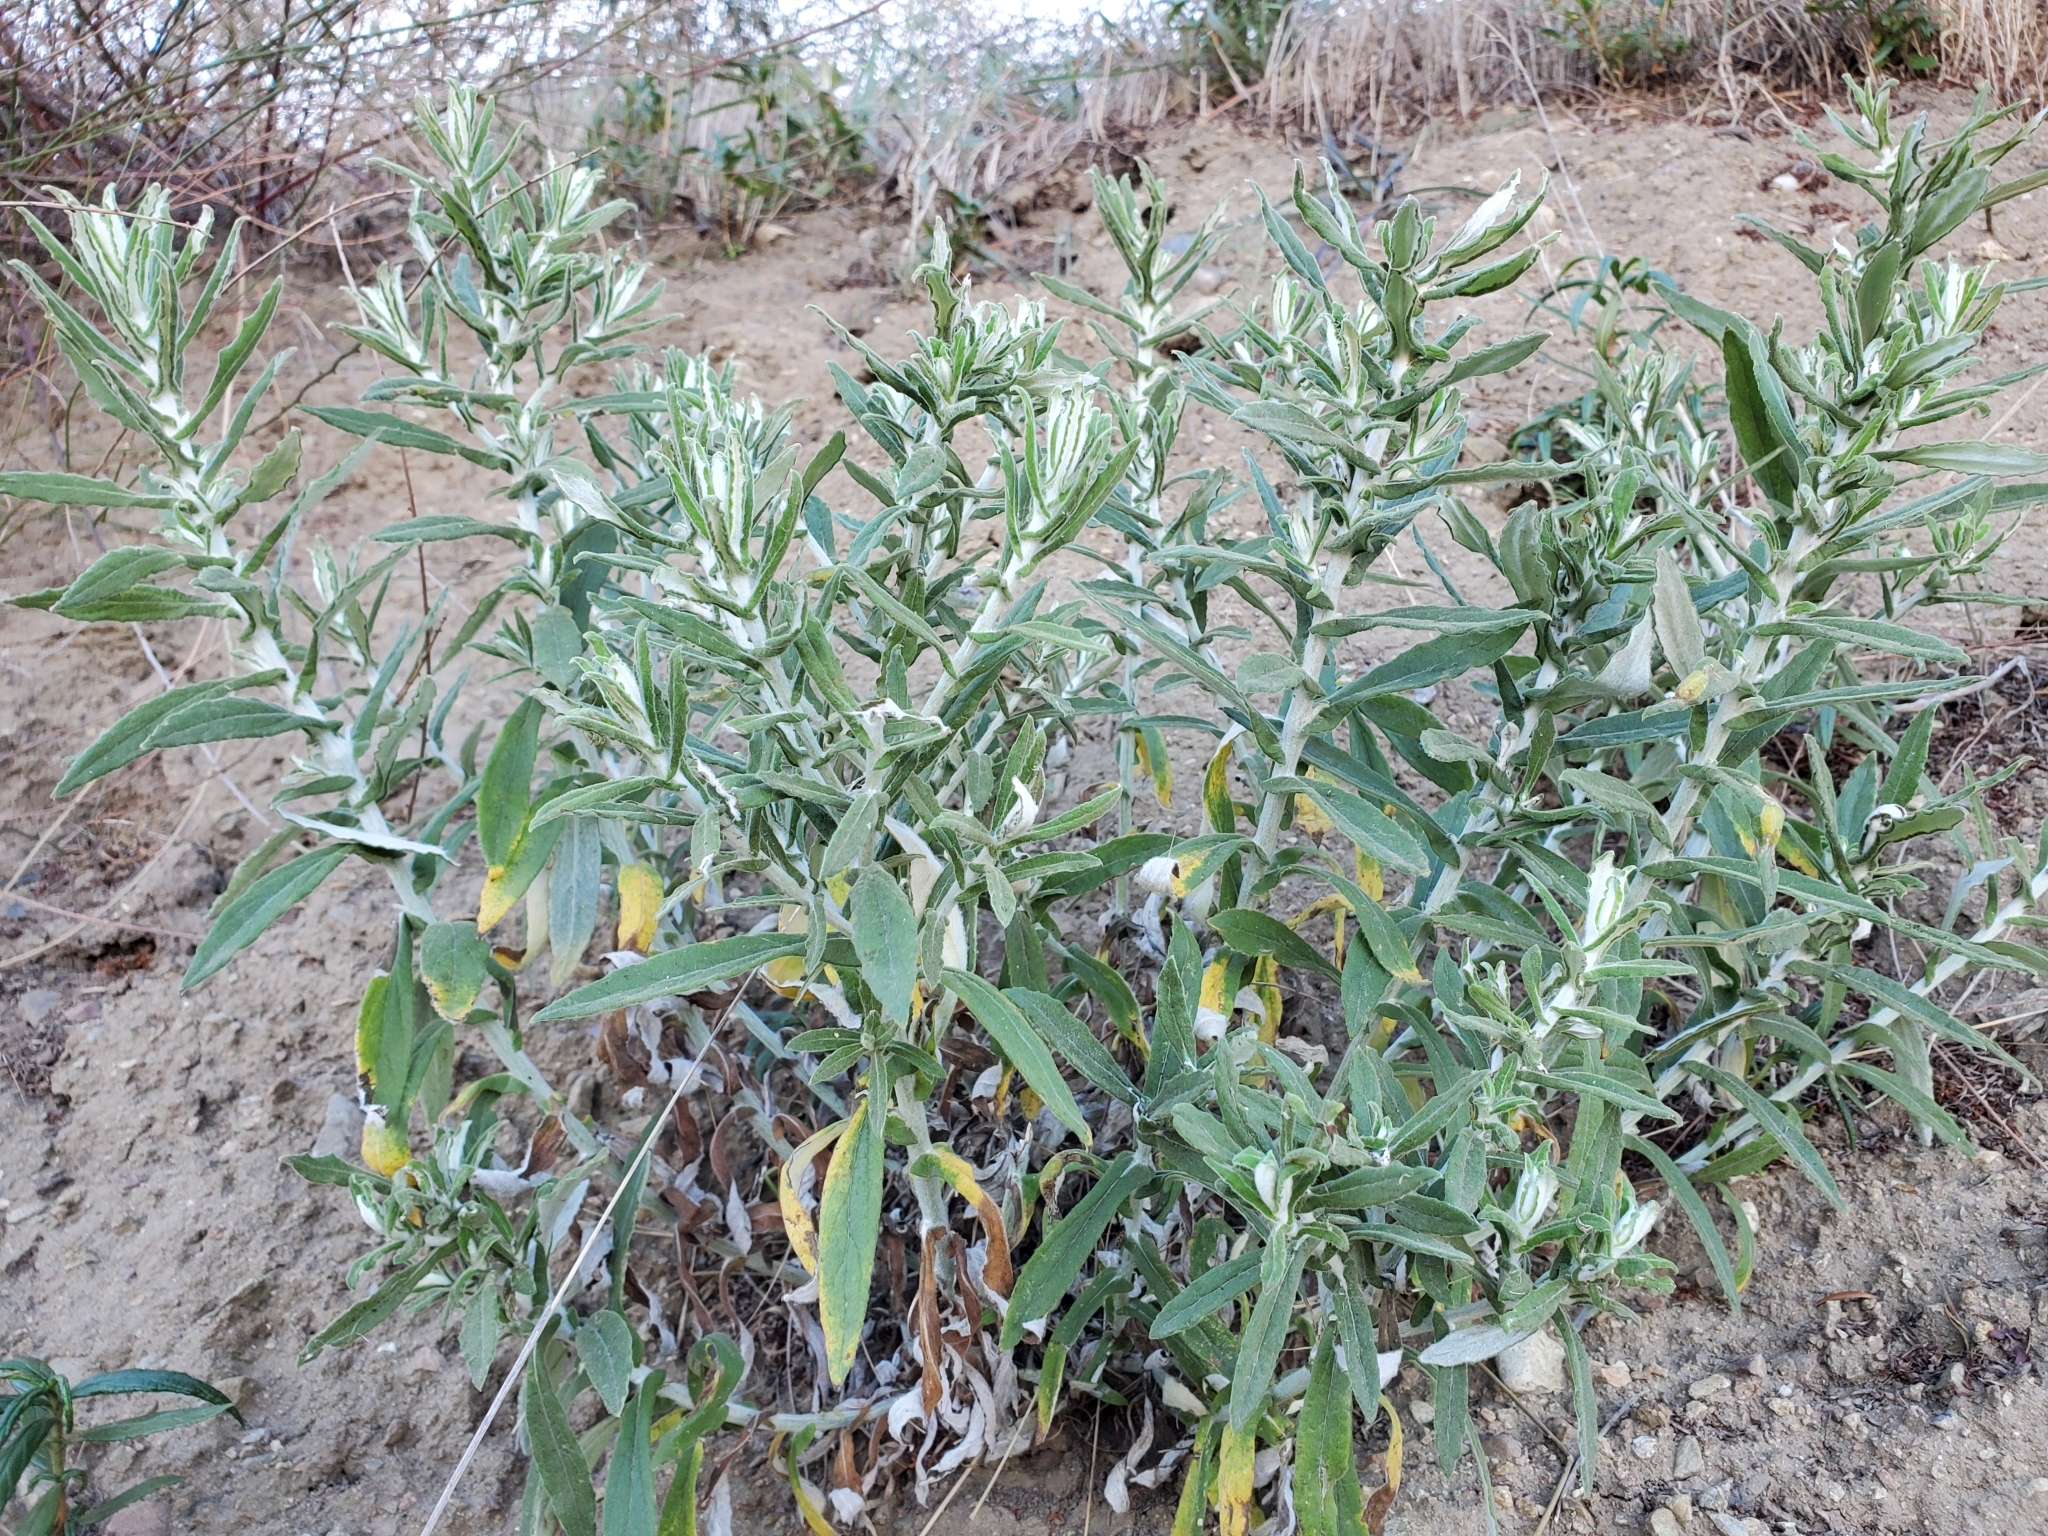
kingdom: Plantae
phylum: Tracheophyta
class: Magnoliopsida
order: Asterales
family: Asteraceae
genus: Pseudognaphalium
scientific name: Pseudognaphalium biolettii
